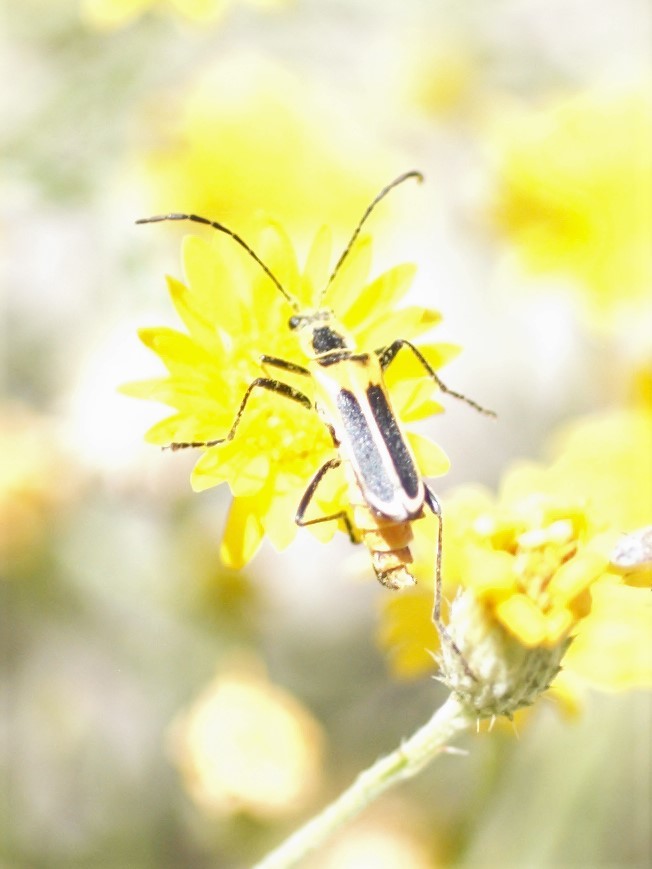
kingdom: Animalia
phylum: Arthropoda
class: Insecta
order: Coleoptera
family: Cantharidae
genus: Chauliognathus
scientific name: Chauliognathus lewisi
